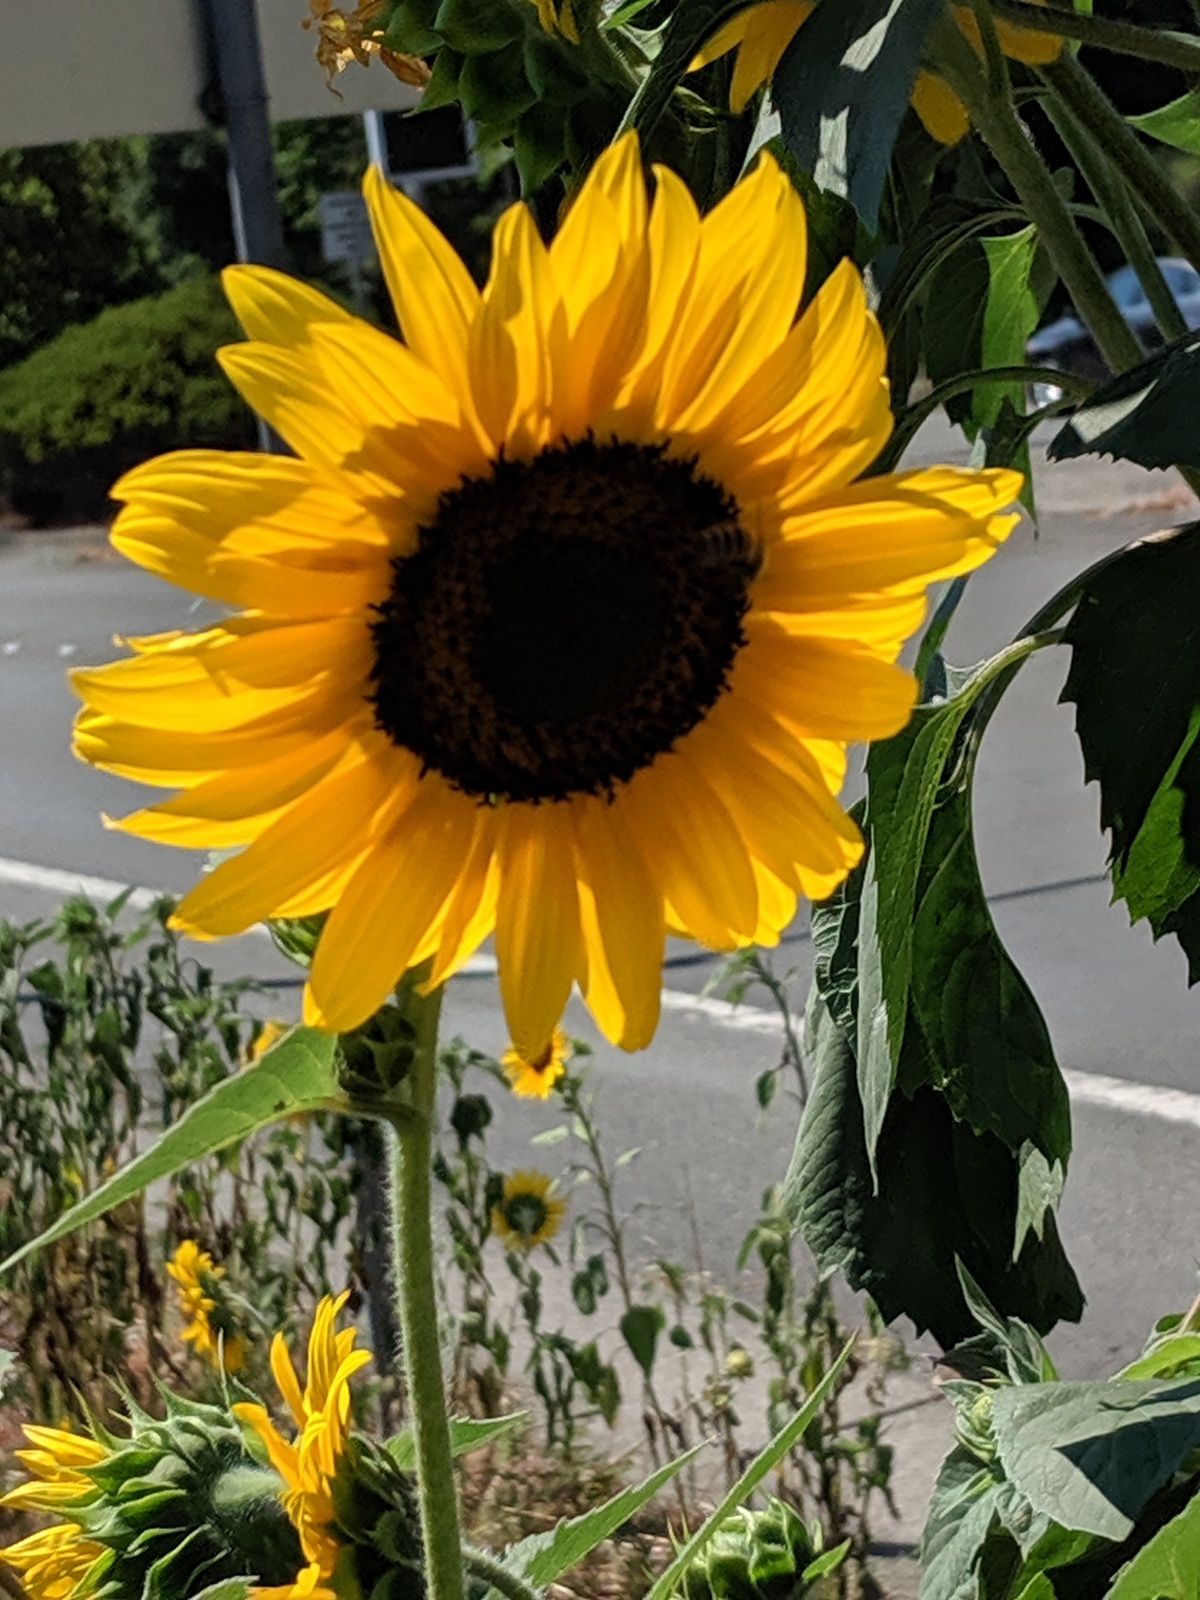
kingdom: Plantae
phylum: Tracheophyta
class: Magnoliopsida
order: Asterales
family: Asteraceae
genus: Helianthus
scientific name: Helianthus annuus
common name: Sunflower
